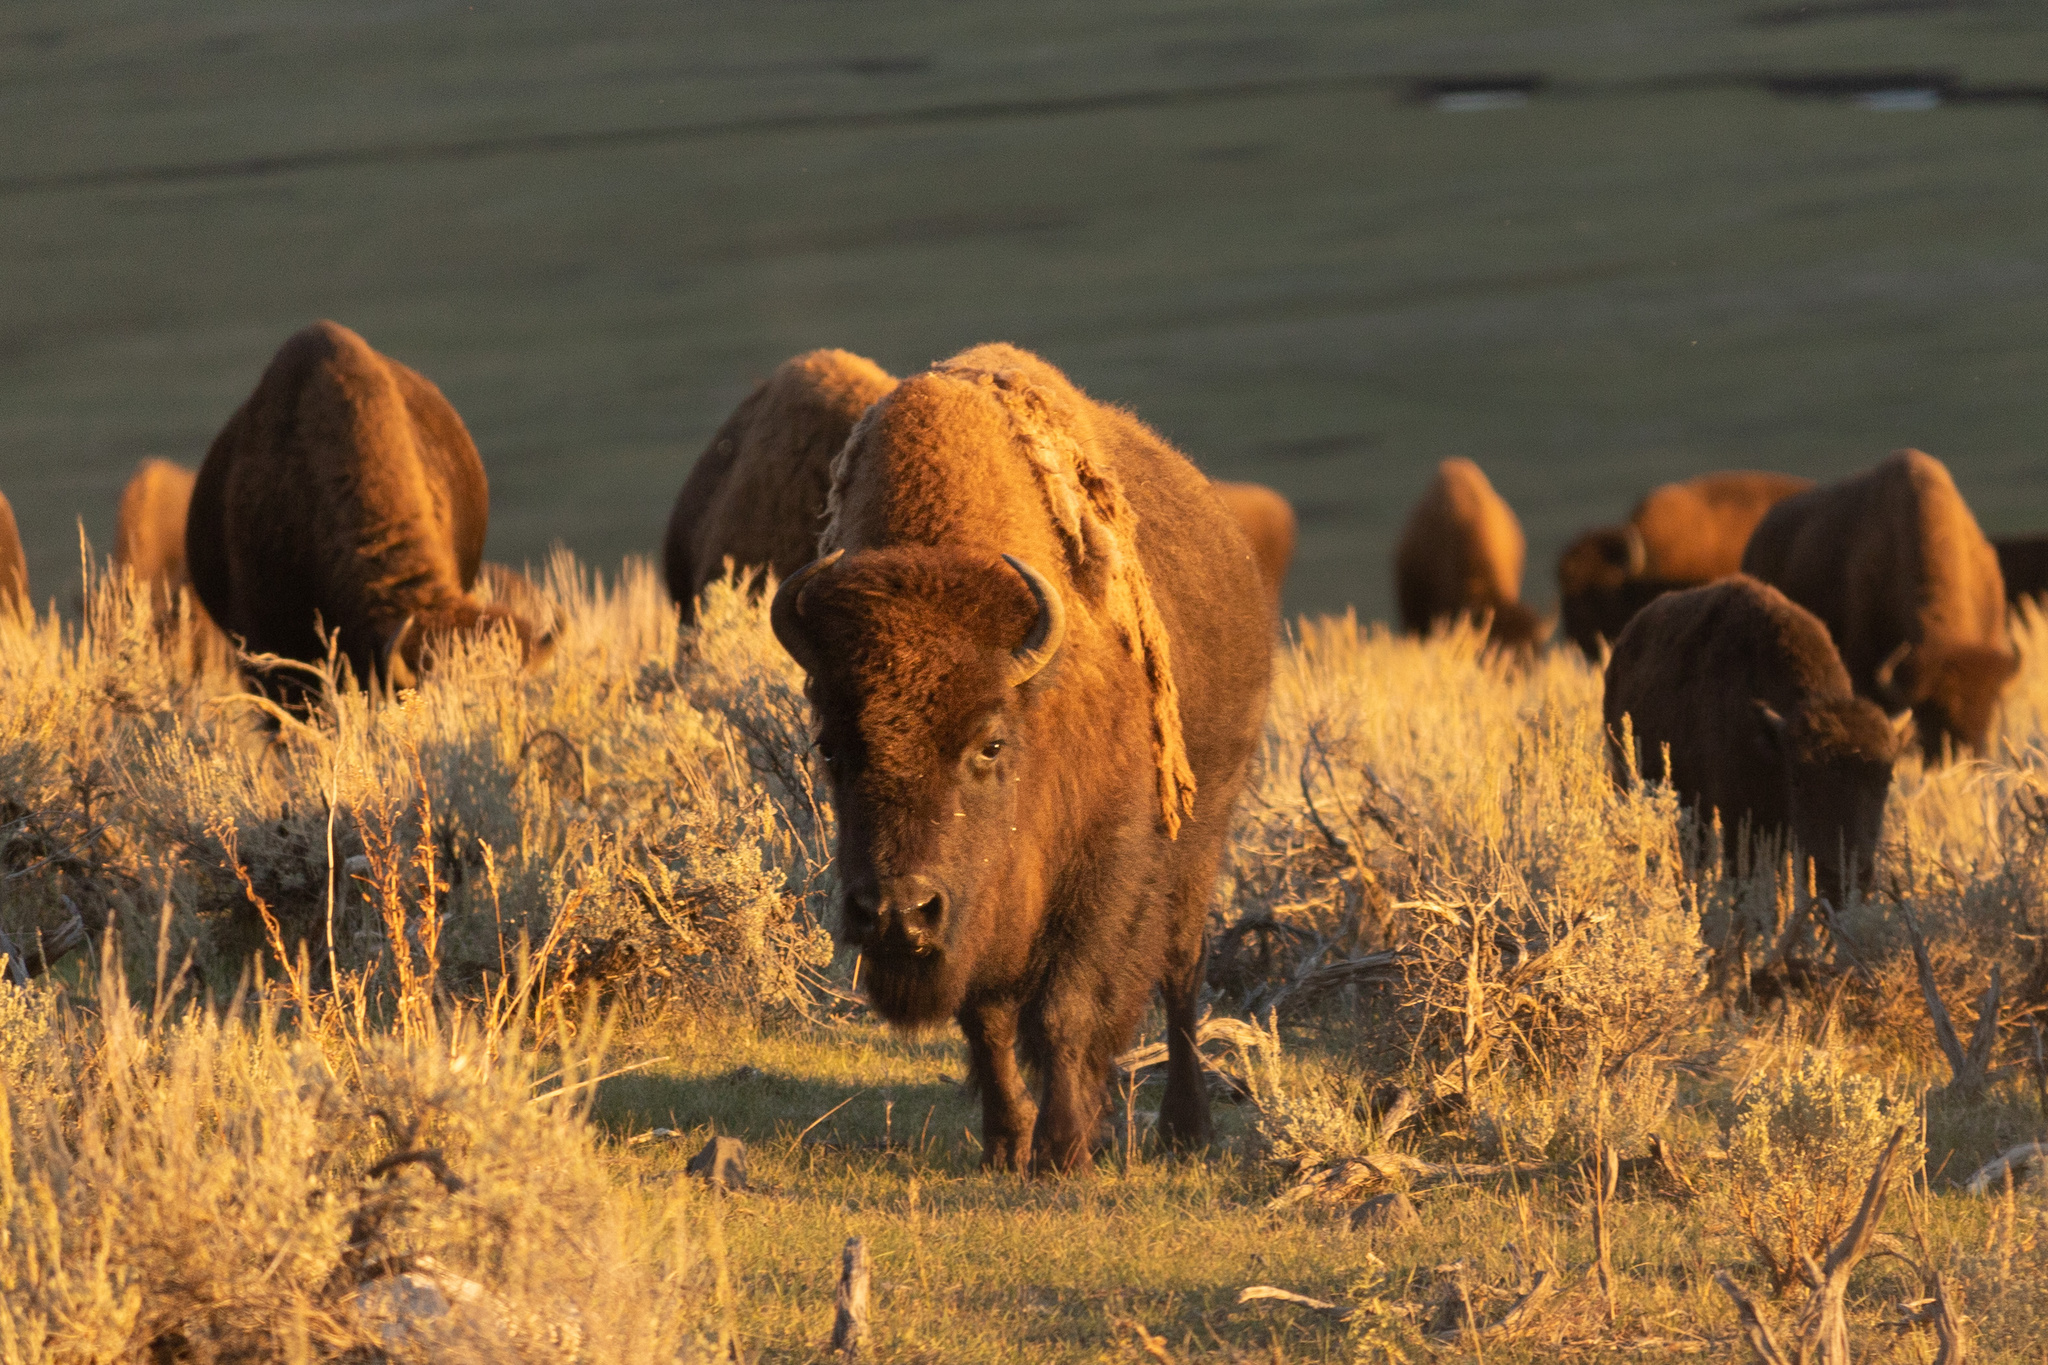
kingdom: Animalia
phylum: Chordata
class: Mammalia
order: Artiodactyla
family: Bovidae
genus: Bison
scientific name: Bison bison
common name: American bison
